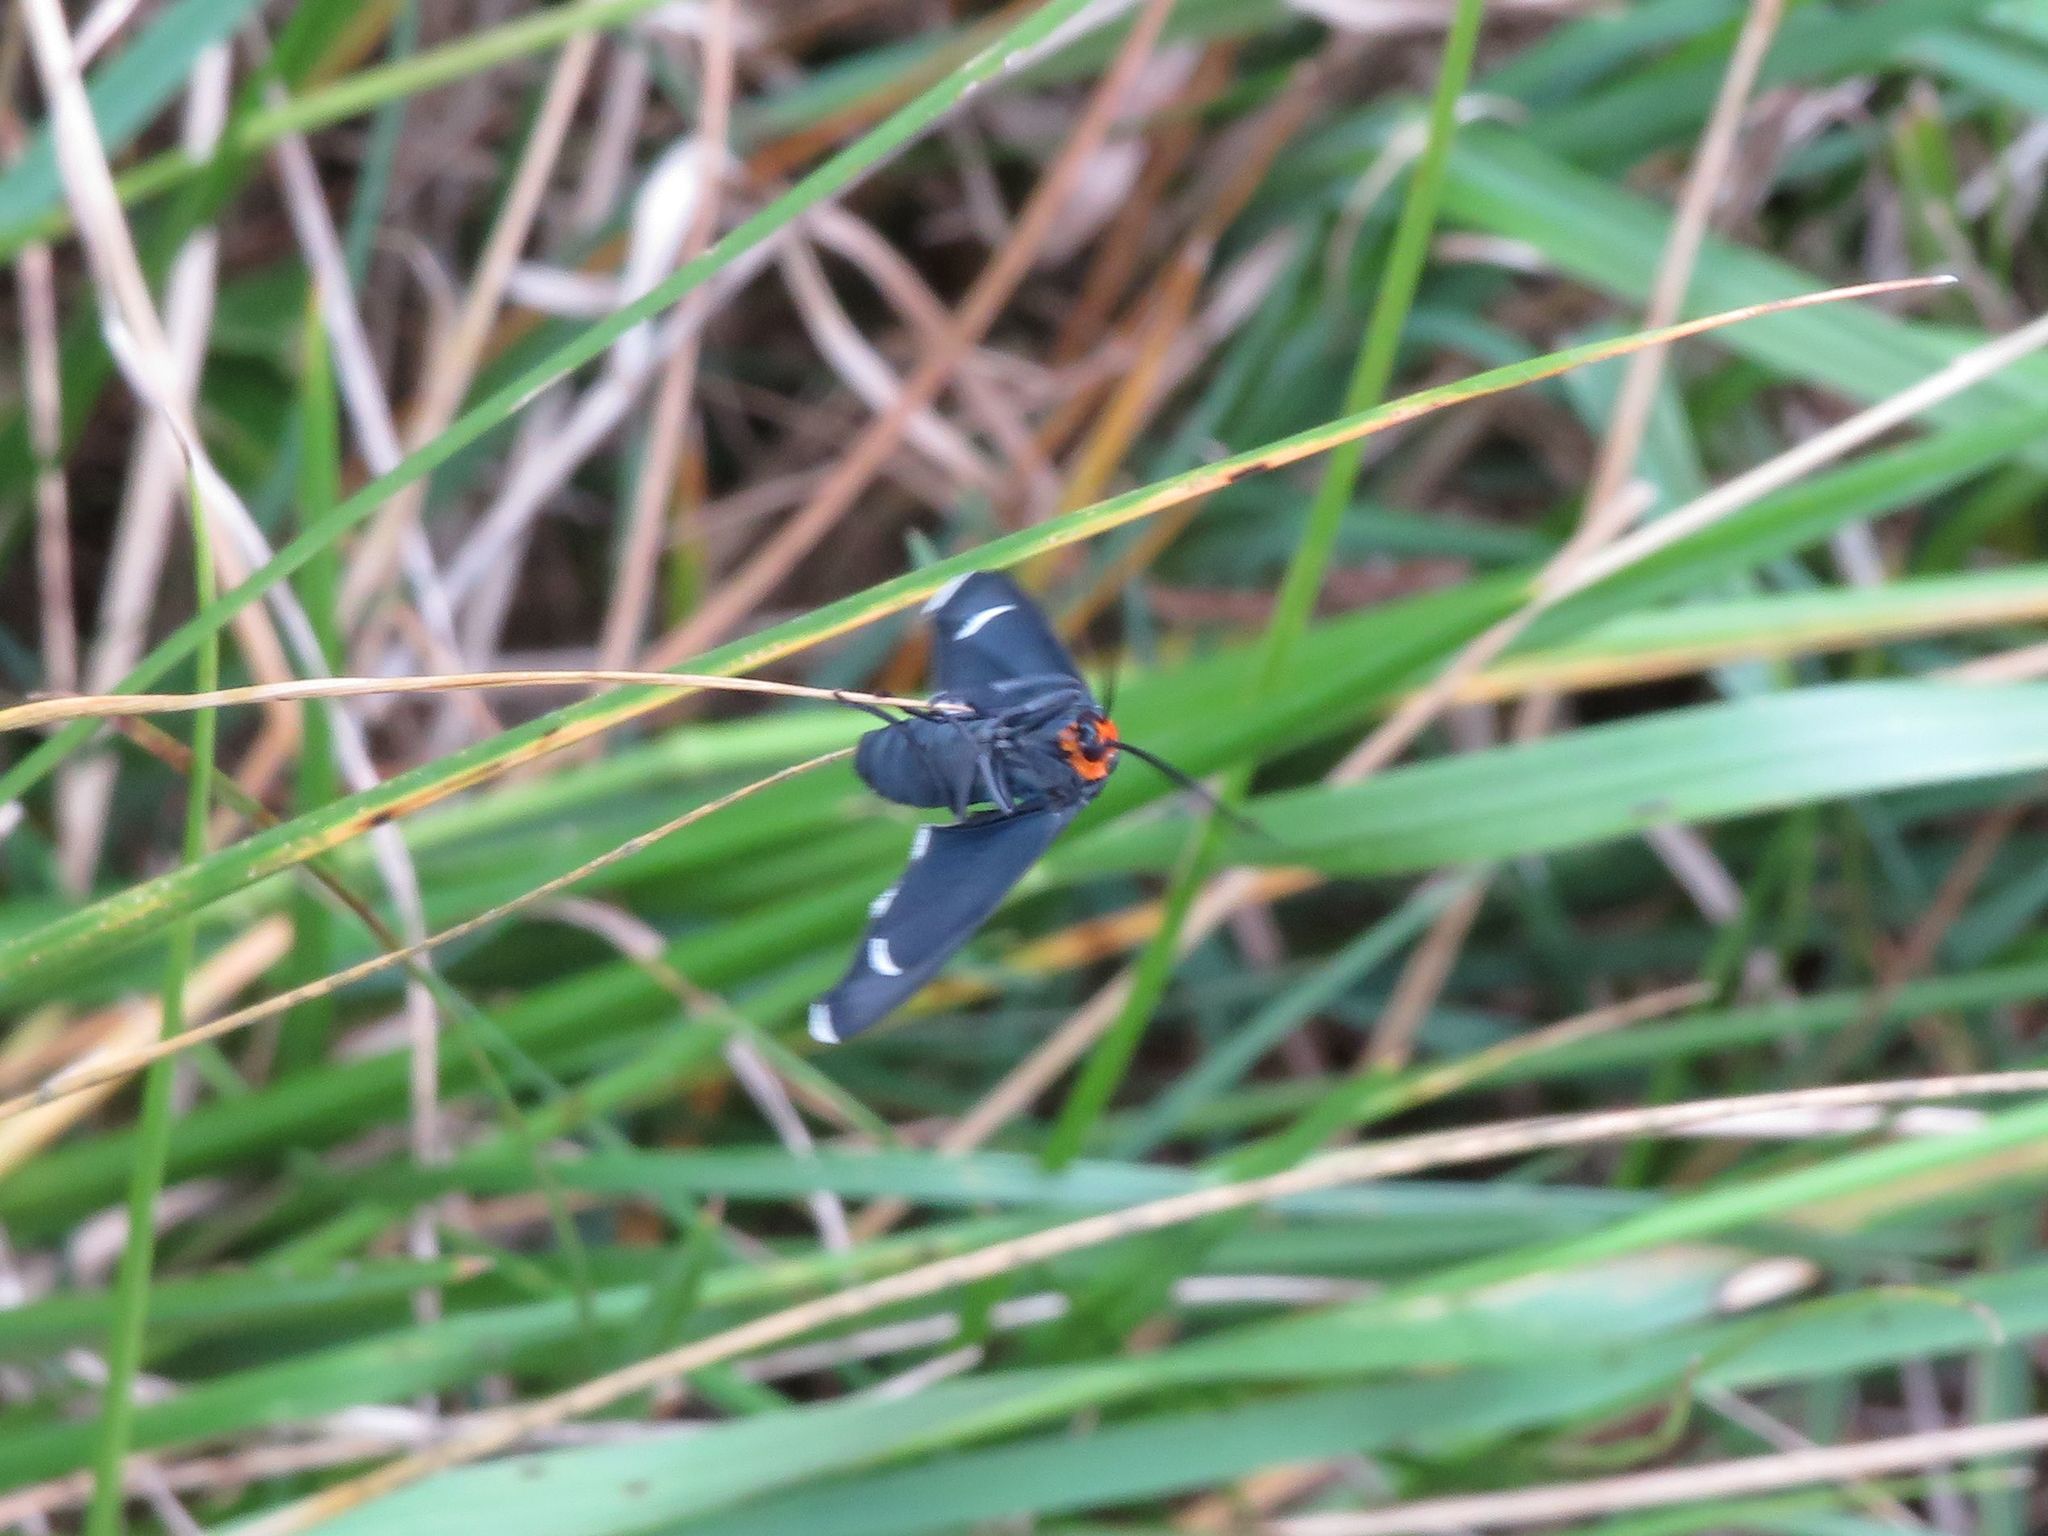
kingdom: Animalia
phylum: Arthropoda
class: Insecta
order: Lepidoptera
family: Erebidae
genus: Ctenucha
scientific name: Ctenucha rubriceps
